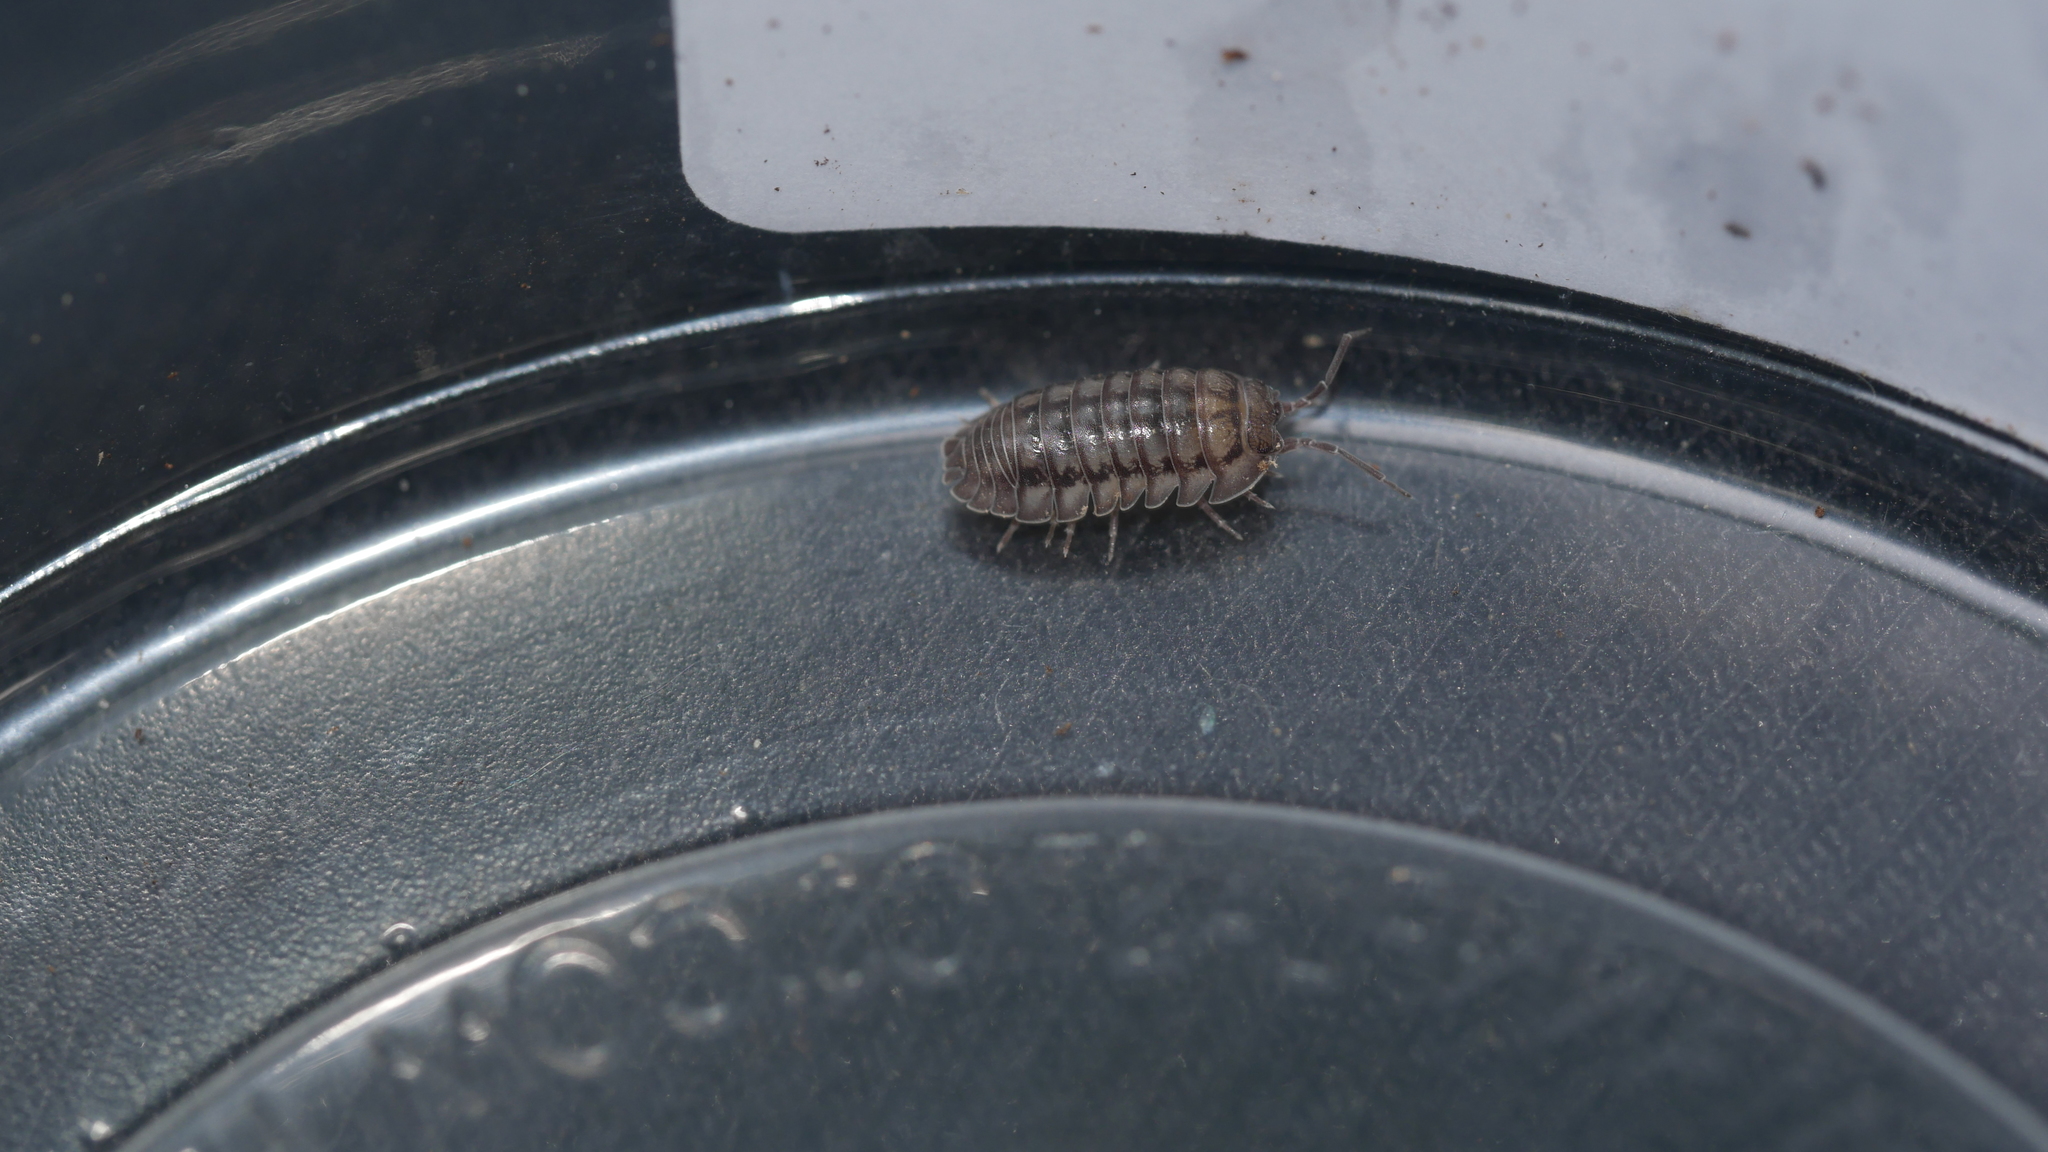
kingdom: Animalia
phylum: Arthropoda
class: Malacostraca
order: Isopoda
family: Armadillidiidae
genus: Armadillidium
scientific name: Armadillidium nasatum
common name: Isopod
